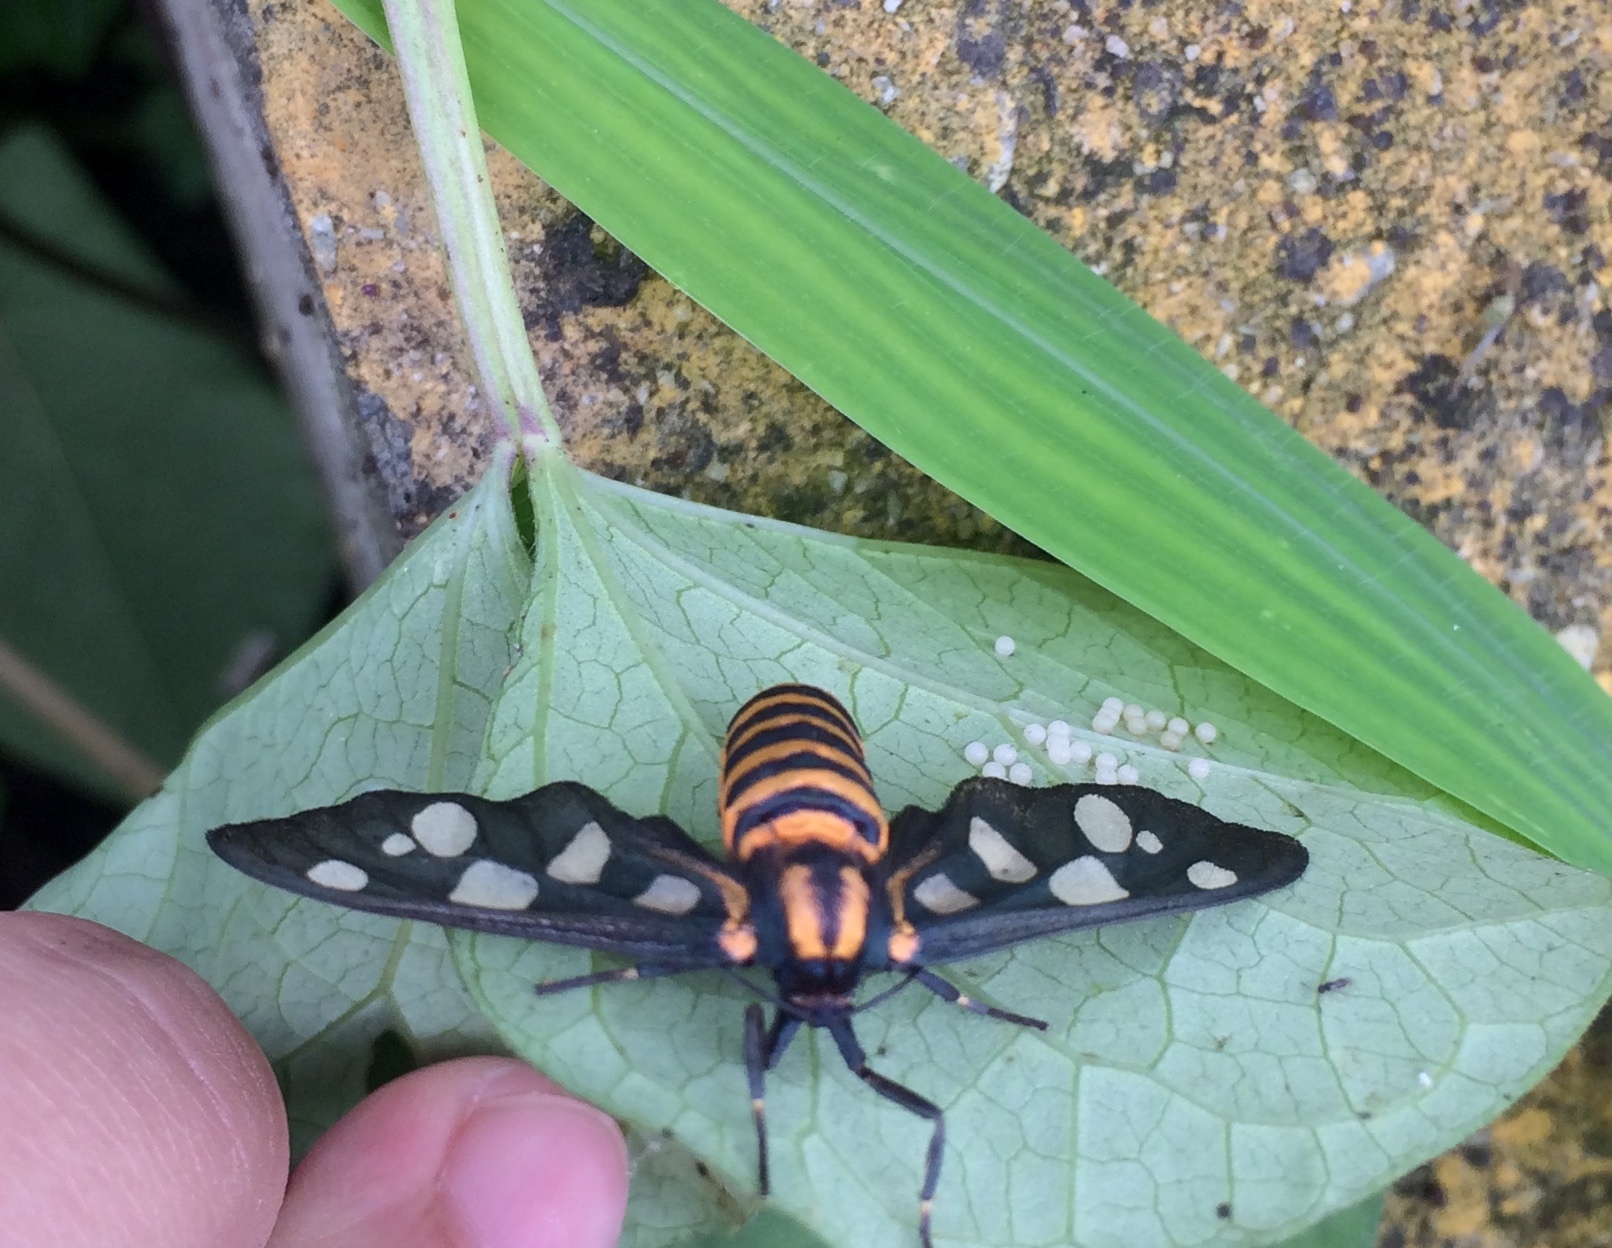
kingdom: Animalia
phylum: Arthropoda
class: Insecta
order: Lepidoptera
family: Erebidae
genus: Amata
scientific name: Amata passalis
